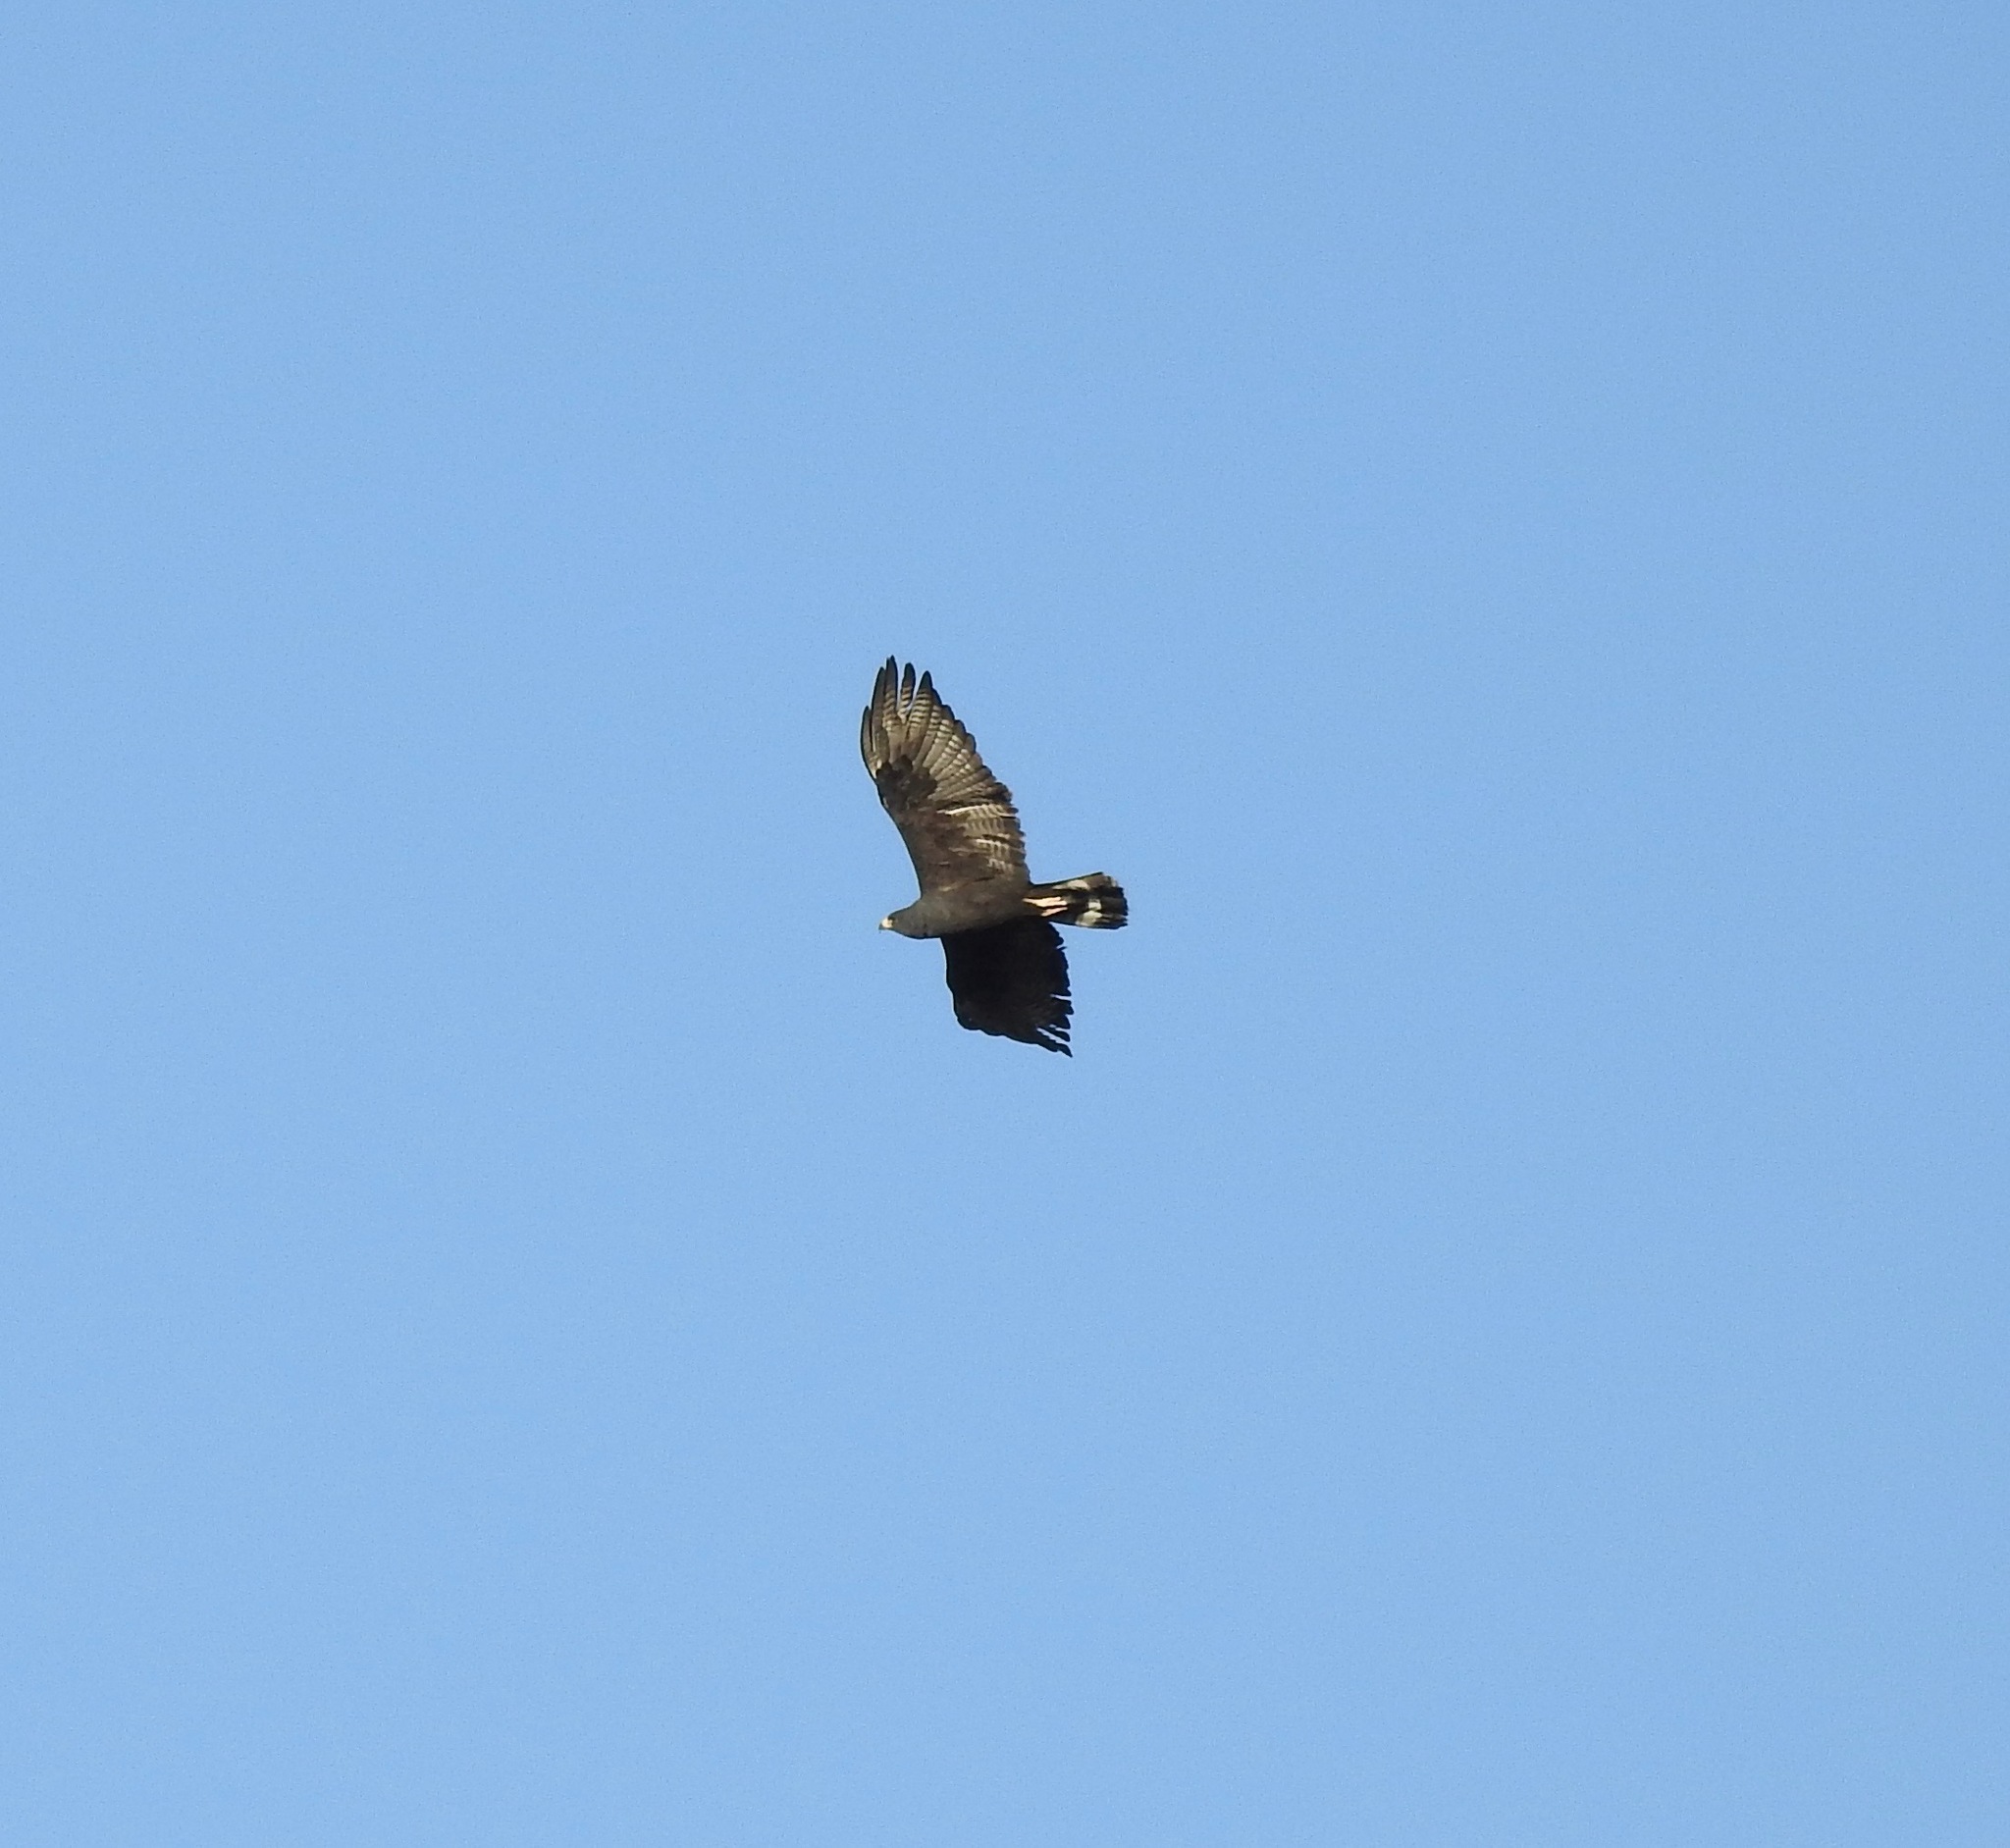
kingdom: Animalia
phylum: Chordata
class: Aves
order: Accipitriformes
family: Accipitridae
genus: Buteo
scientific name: Buteo albonotatus
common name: Zone-tailed hawk
